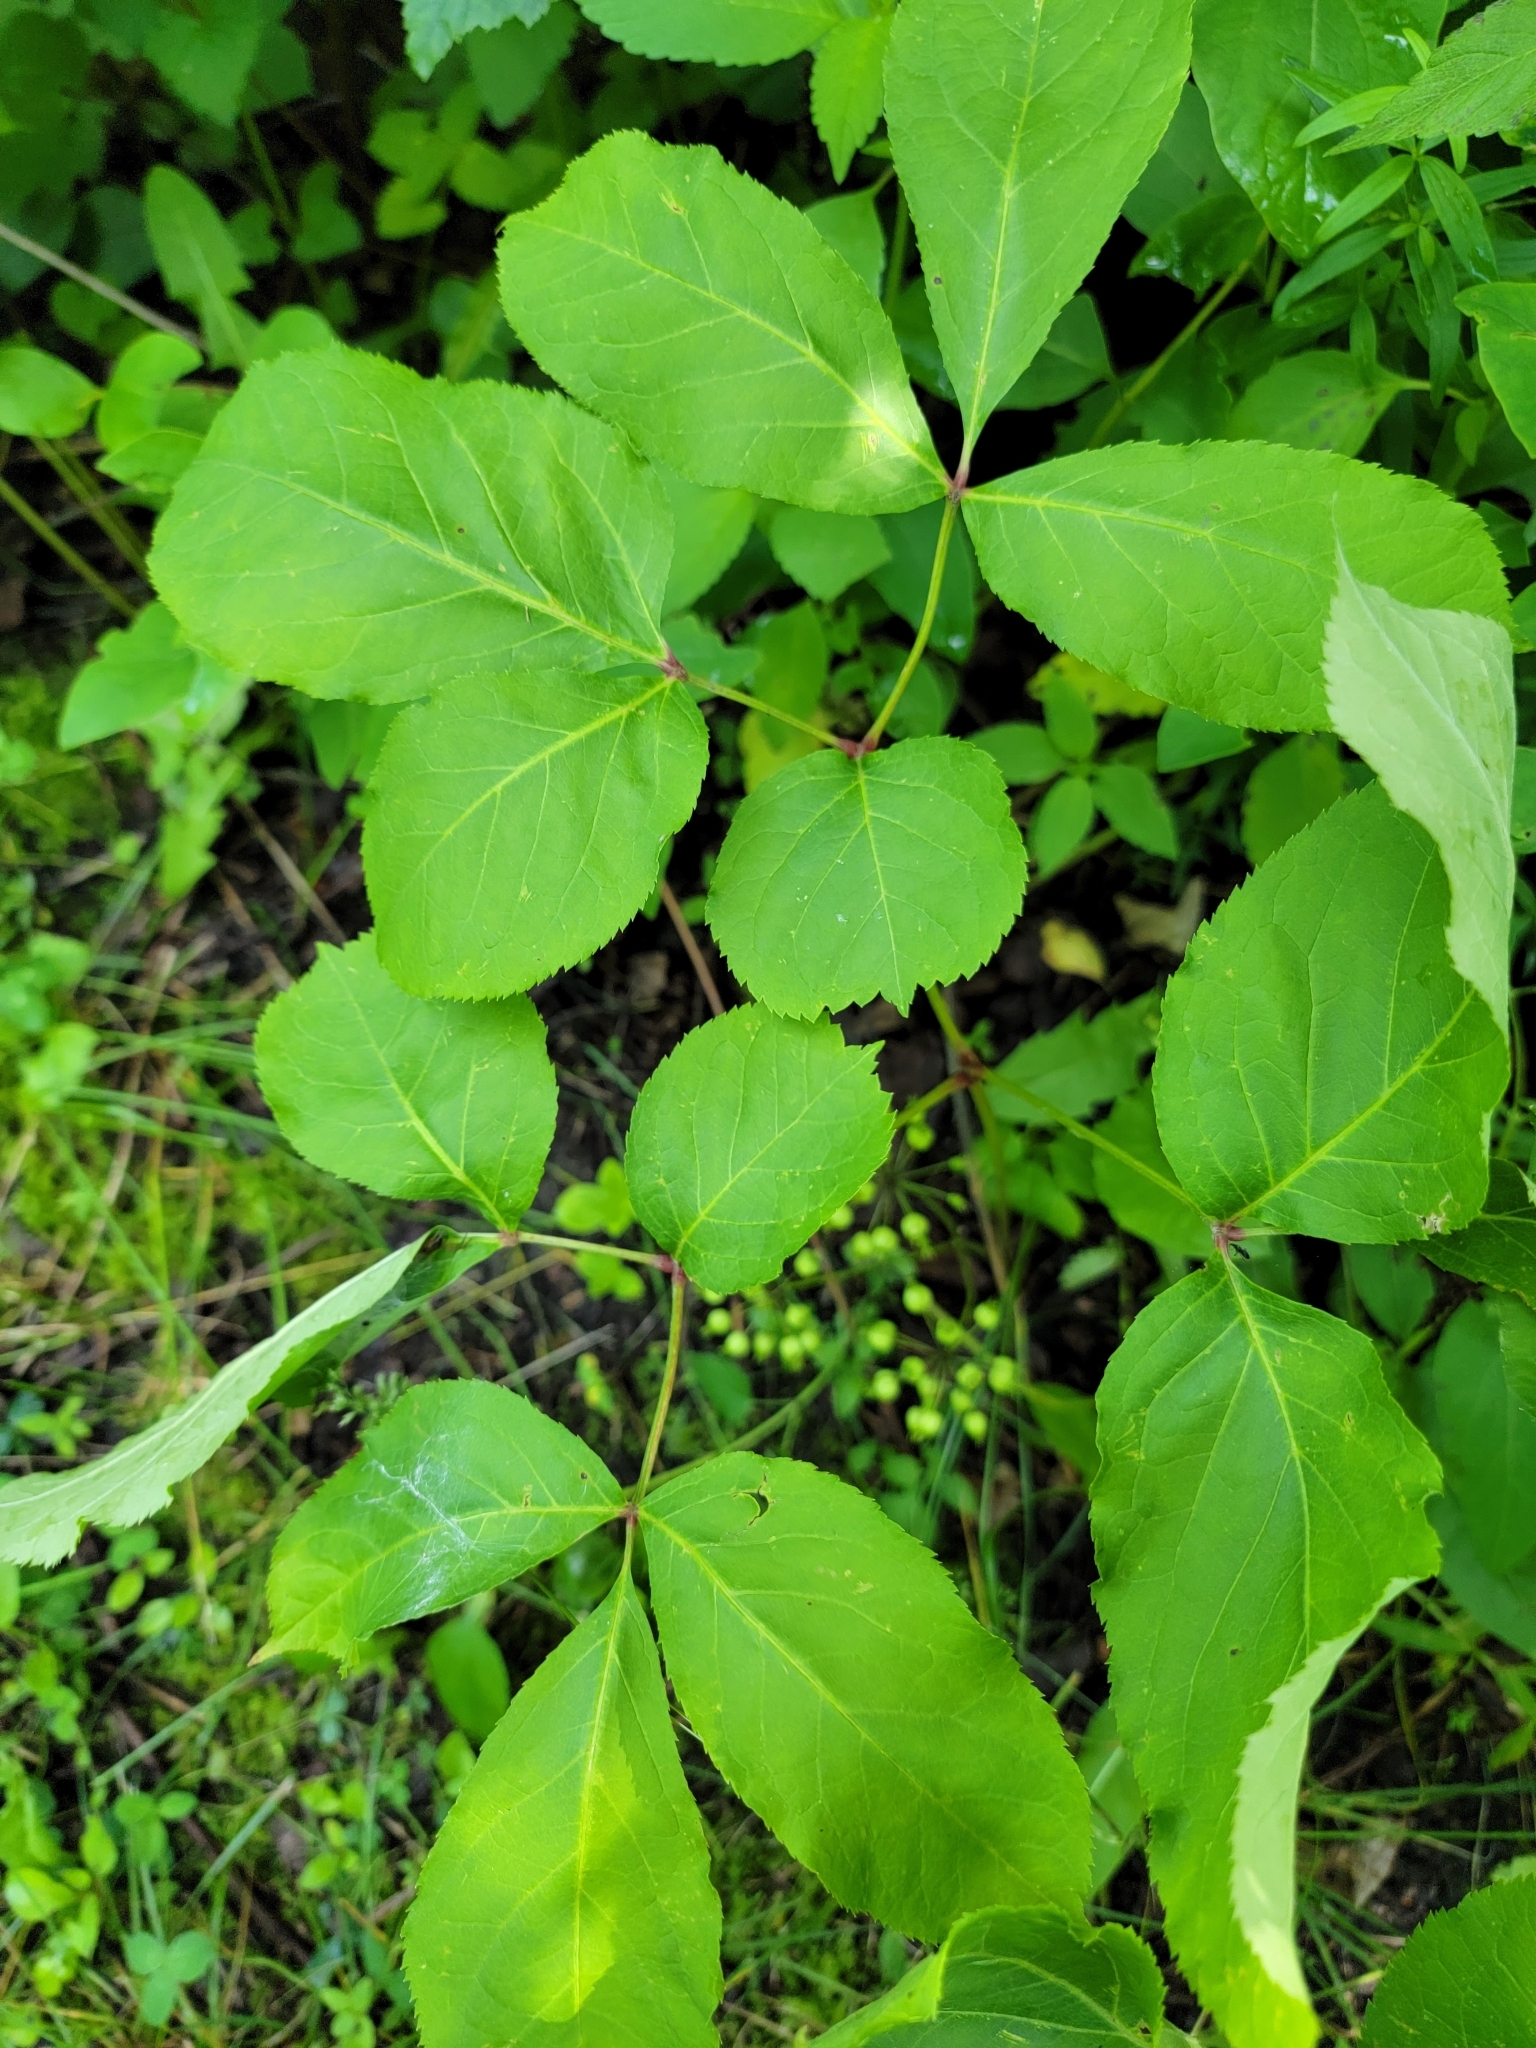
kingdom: Plantae
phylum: Tracheophyta
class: Magnoliopsida
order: Apiales
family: Araliaceae
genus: Aralia
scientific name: Aralia nudicaulis
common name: Wild sarsaparilla
